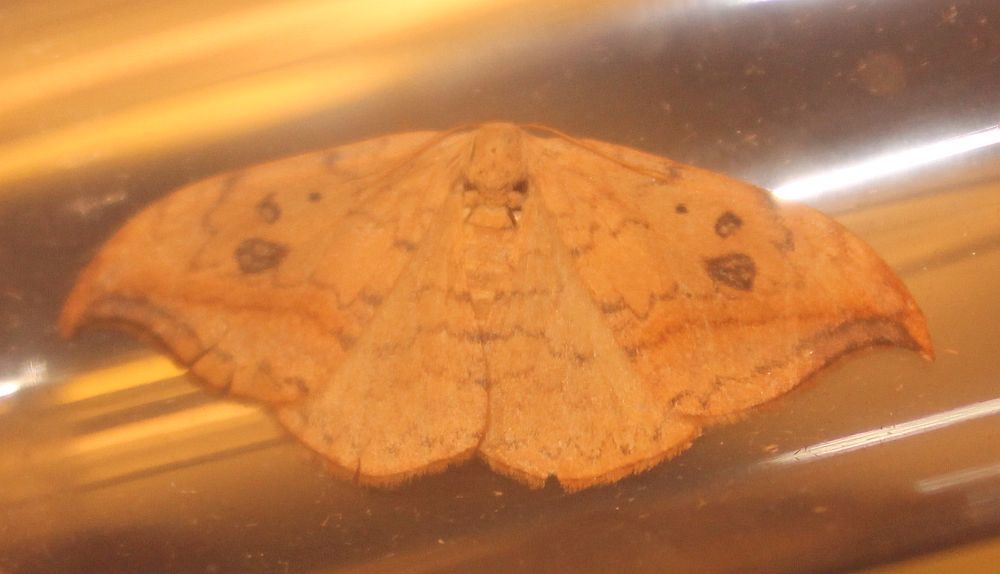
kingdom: Animalia
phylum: Arthropoda
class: Insecta
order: Lepidoptera
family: Drepanidae
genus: Drepana
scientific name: Drepana falcataria
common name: Pebble hook-tip
